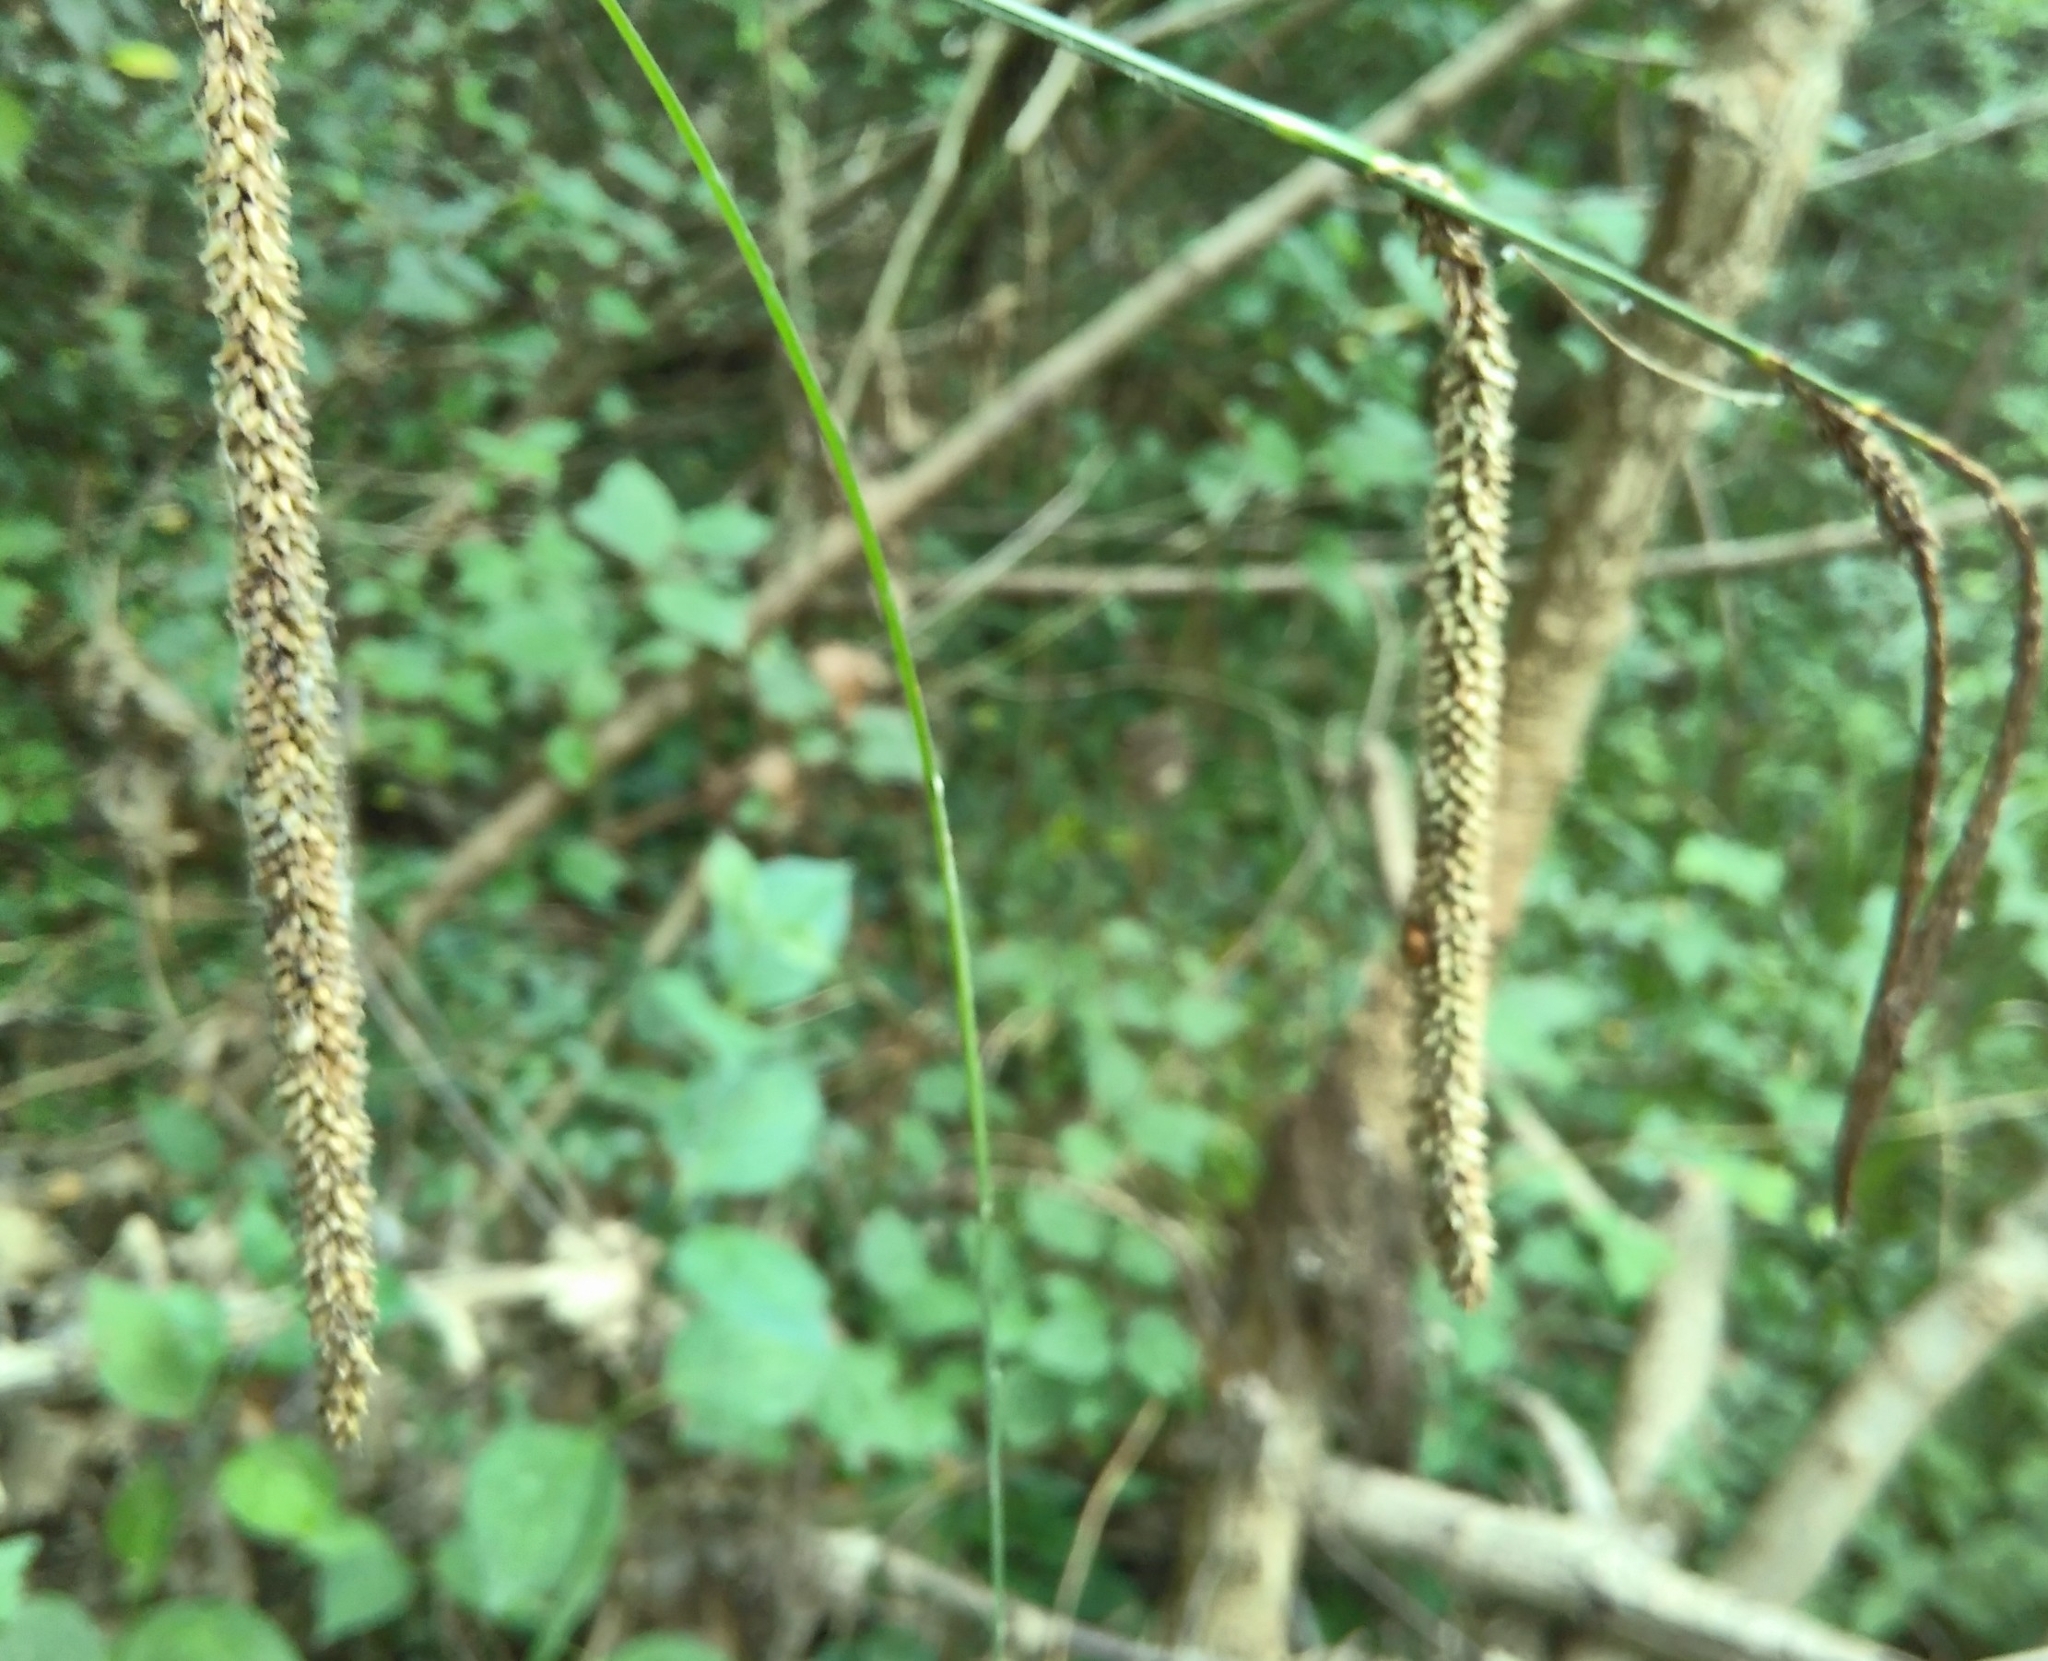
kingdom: Plantae
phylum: Tracheophyta
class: Liliopsida
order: Poales
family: Cyperaceae
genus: Carex
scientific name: Carex pendula
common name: Pendulous sedge
